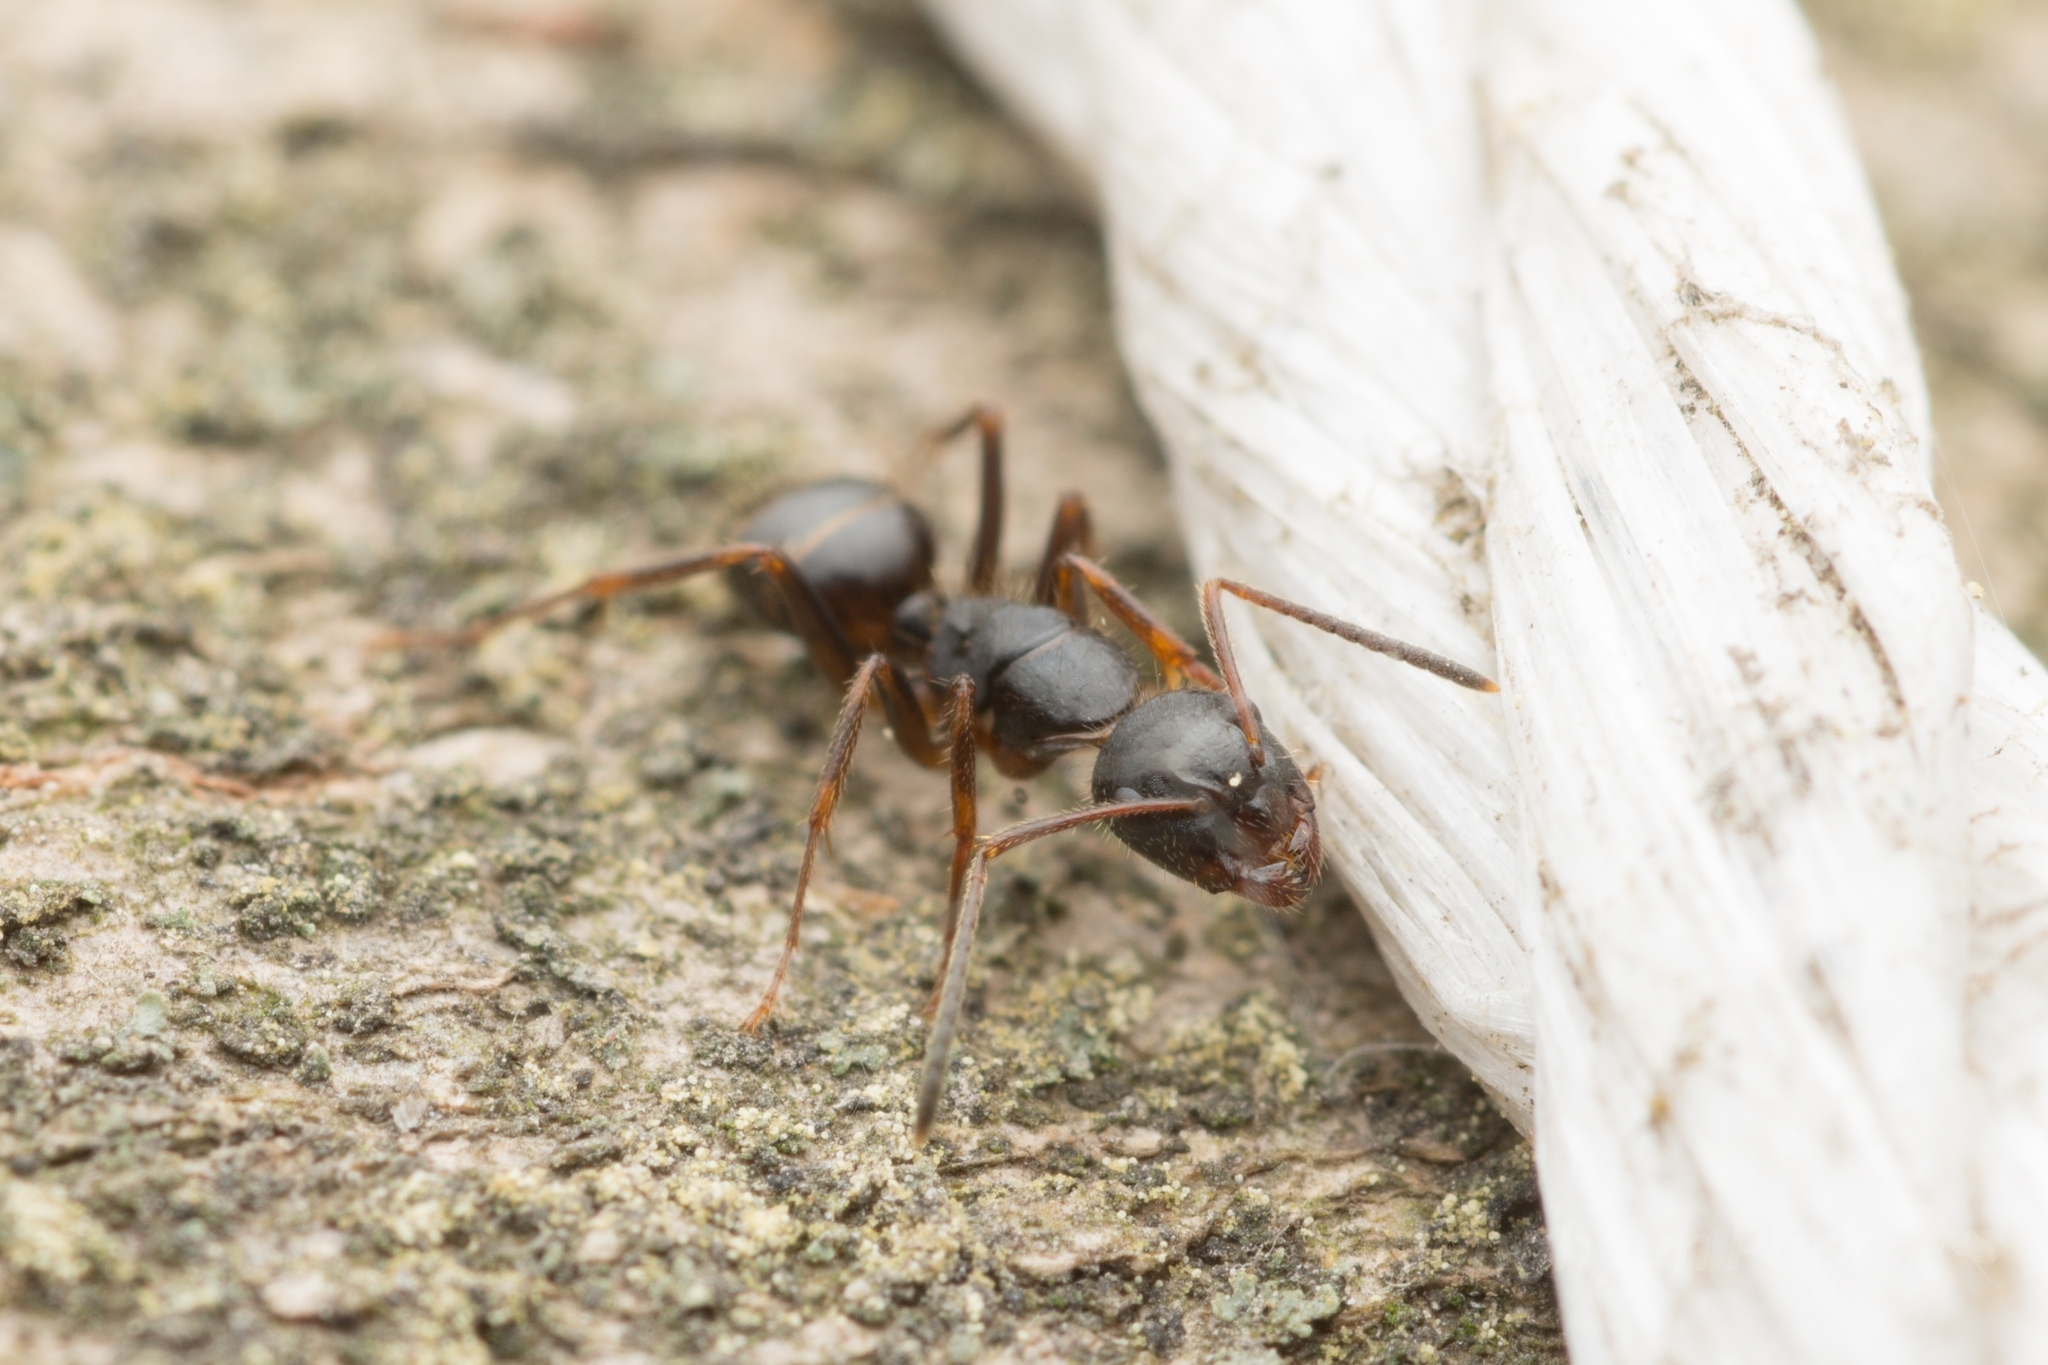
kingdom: Animalia
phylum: Arthropoda
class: Insecta
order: Hymenoptera
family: Formicidae
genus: Camponotus
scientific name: Camponotus nipponensis
